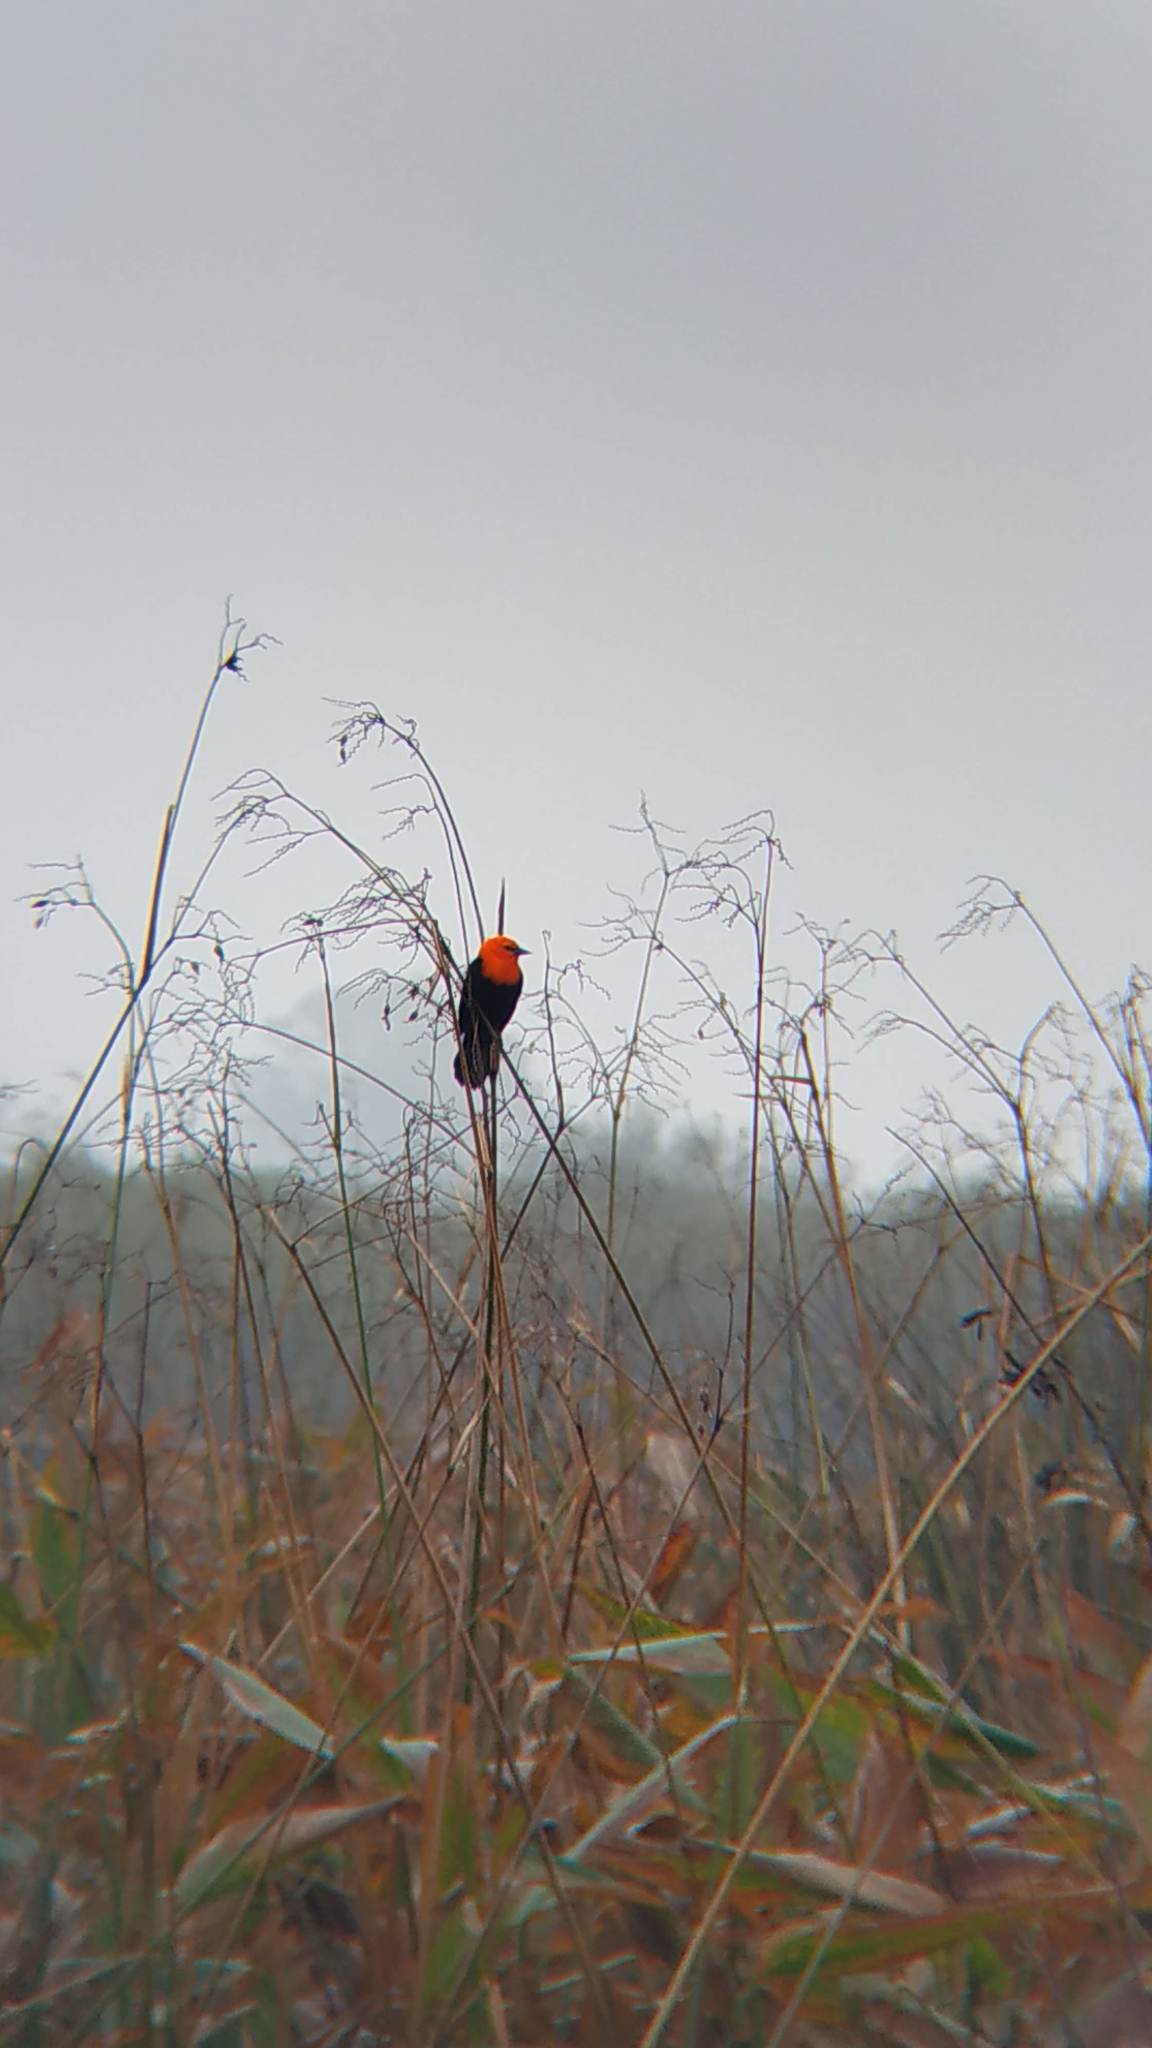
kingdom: Animalia
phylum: Chordata
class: Aves
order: Passeriformes
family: Icteridae
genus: Amblyramphus
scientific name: Amblyramphus holosericeus
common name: Scarlet-headed blackbird
